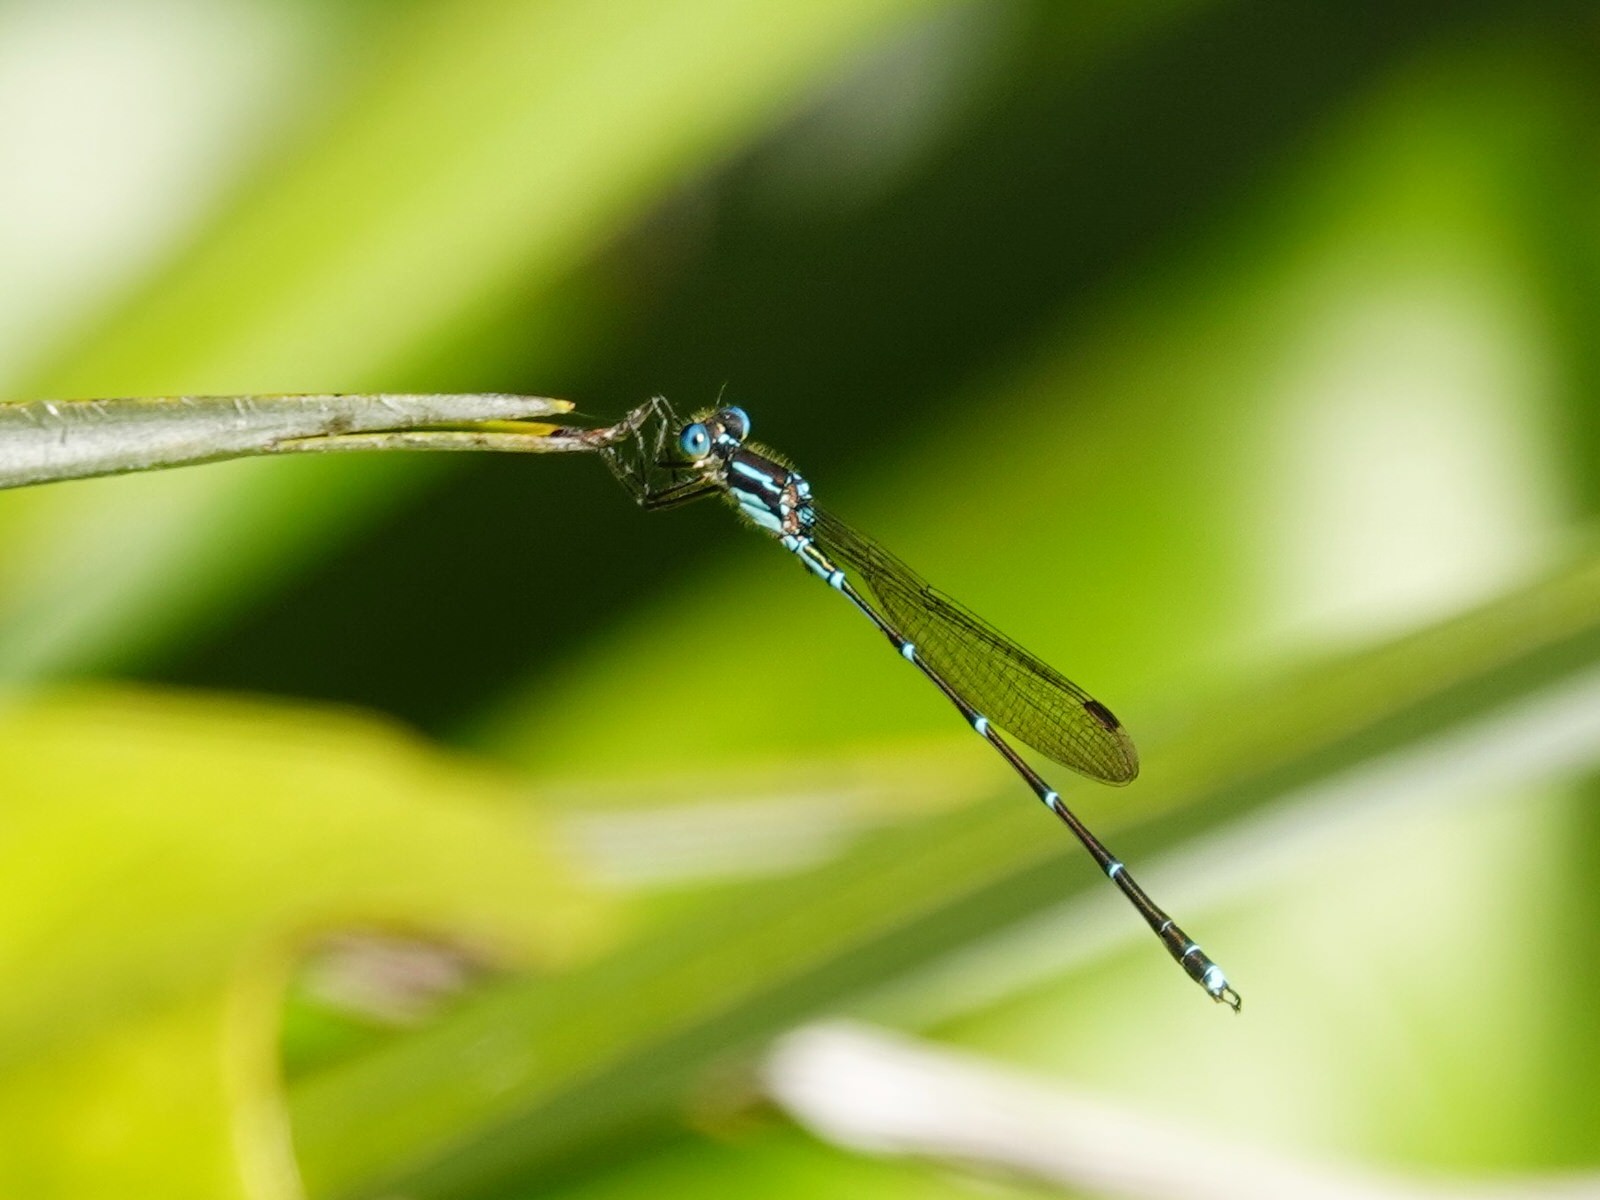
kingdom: Animalia
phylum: Arthropoda
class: Insecta
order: Odonata
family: Lestidae
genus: Austrolestes
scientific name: Austrolestes colensonis
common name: Blue damselfly
